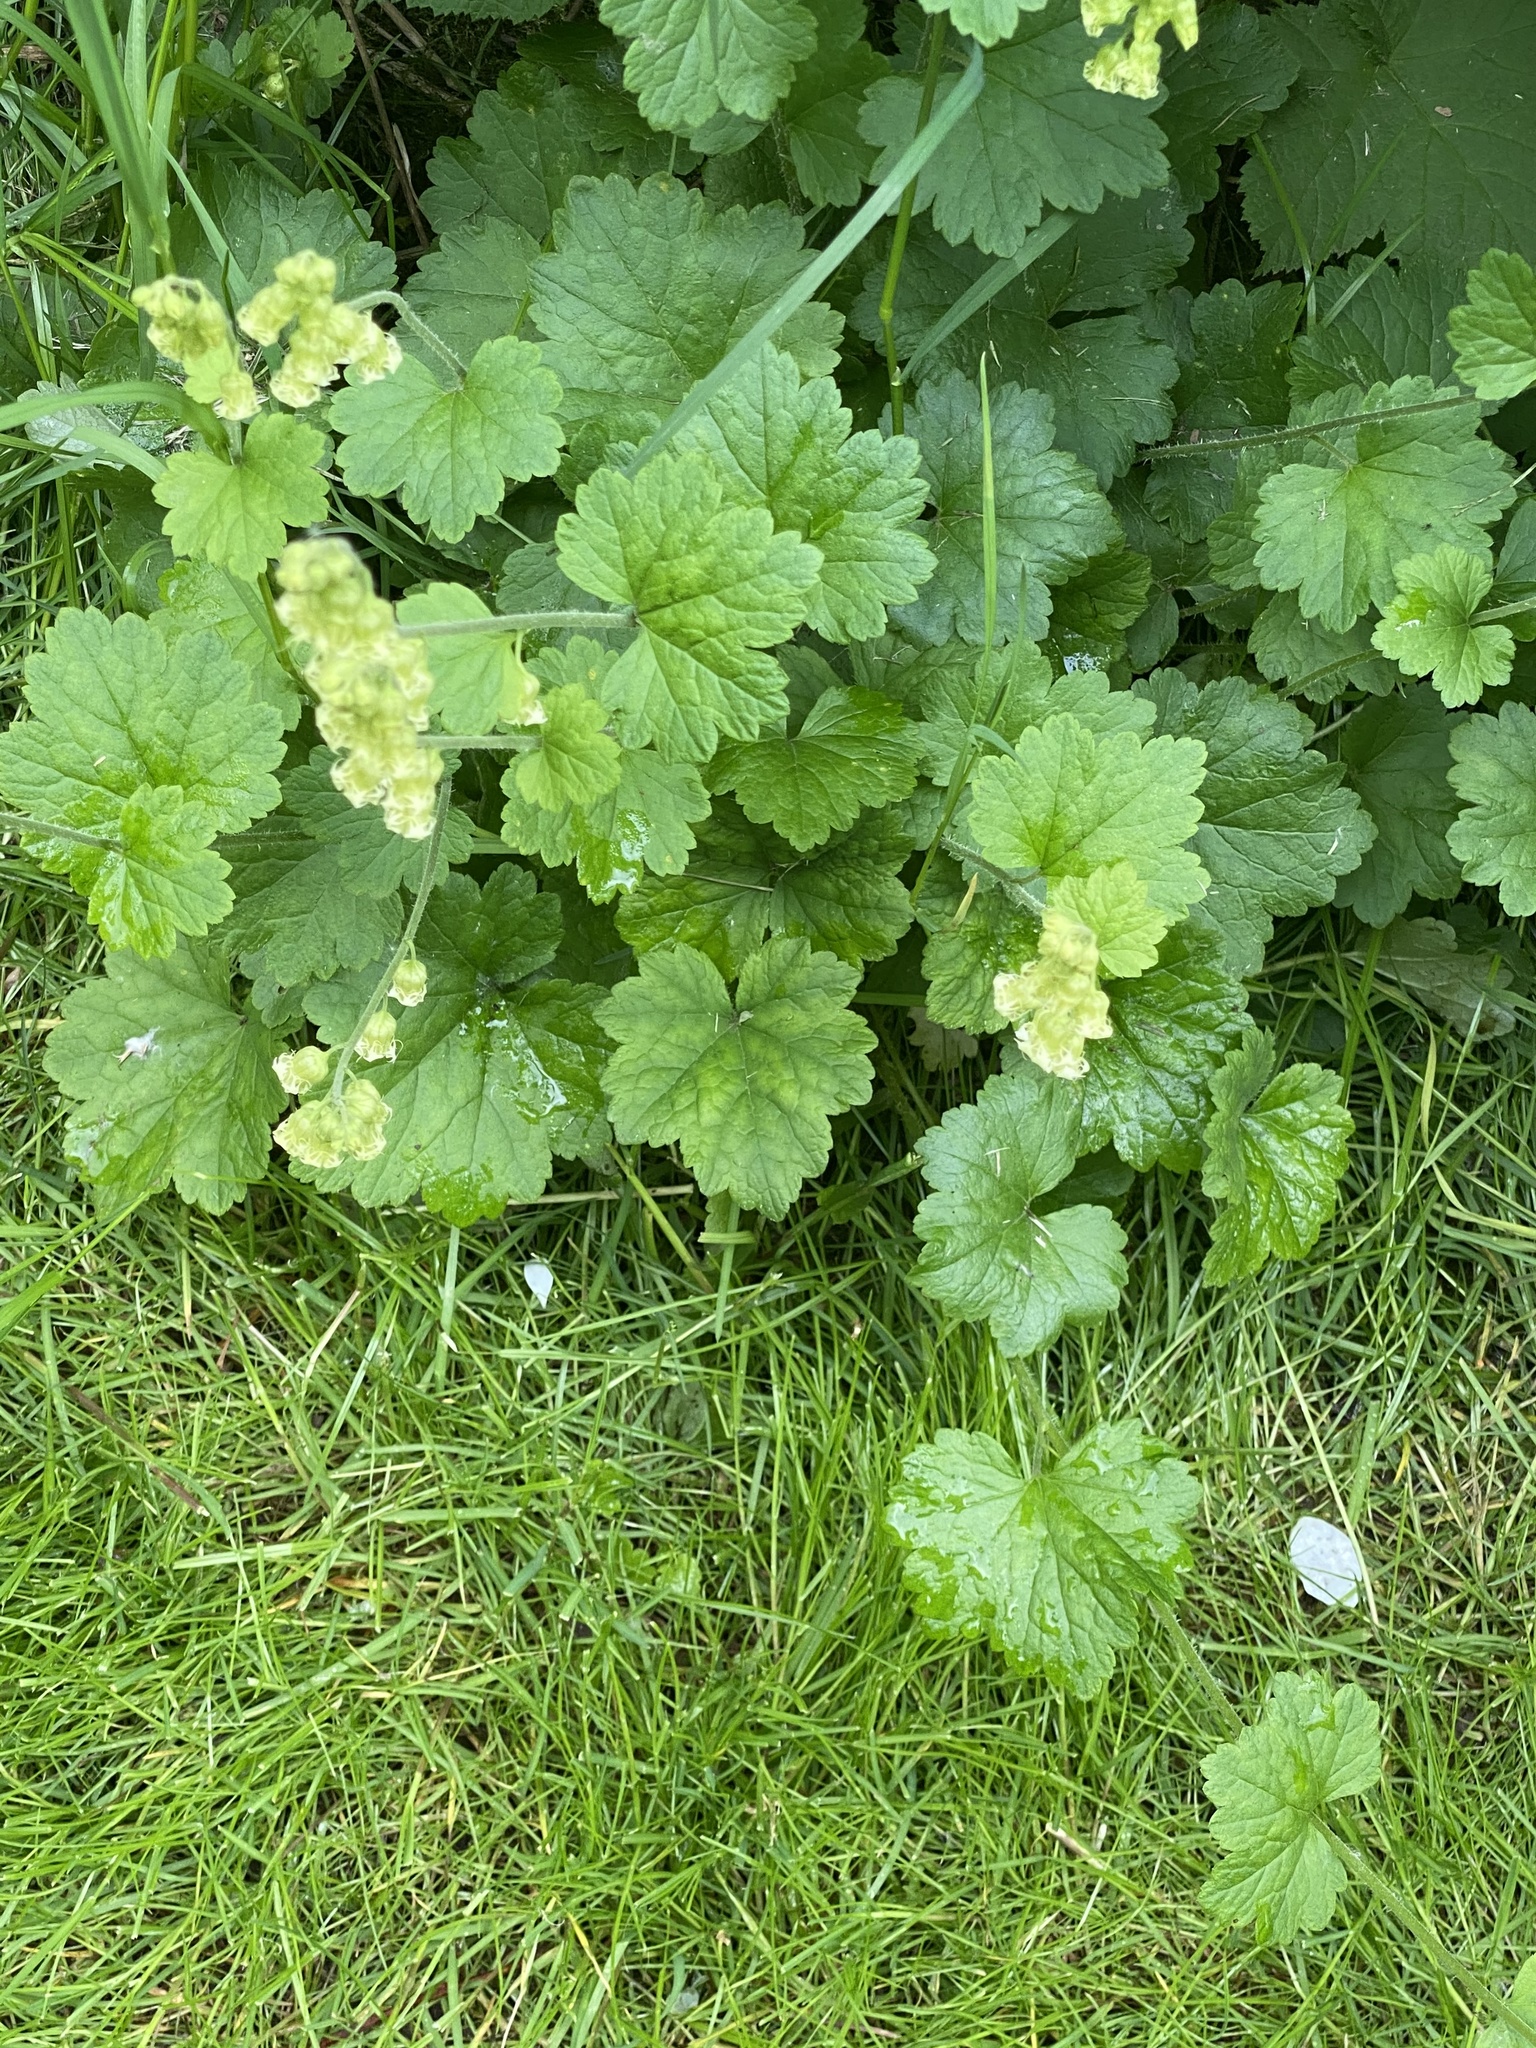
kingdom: Plantae
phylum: Tracheophyta
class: Magnoliopsida
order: Saxifragales
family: Saxifragaceae
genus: Tellima
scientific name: Tellima grandiflora
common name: Fringecups
